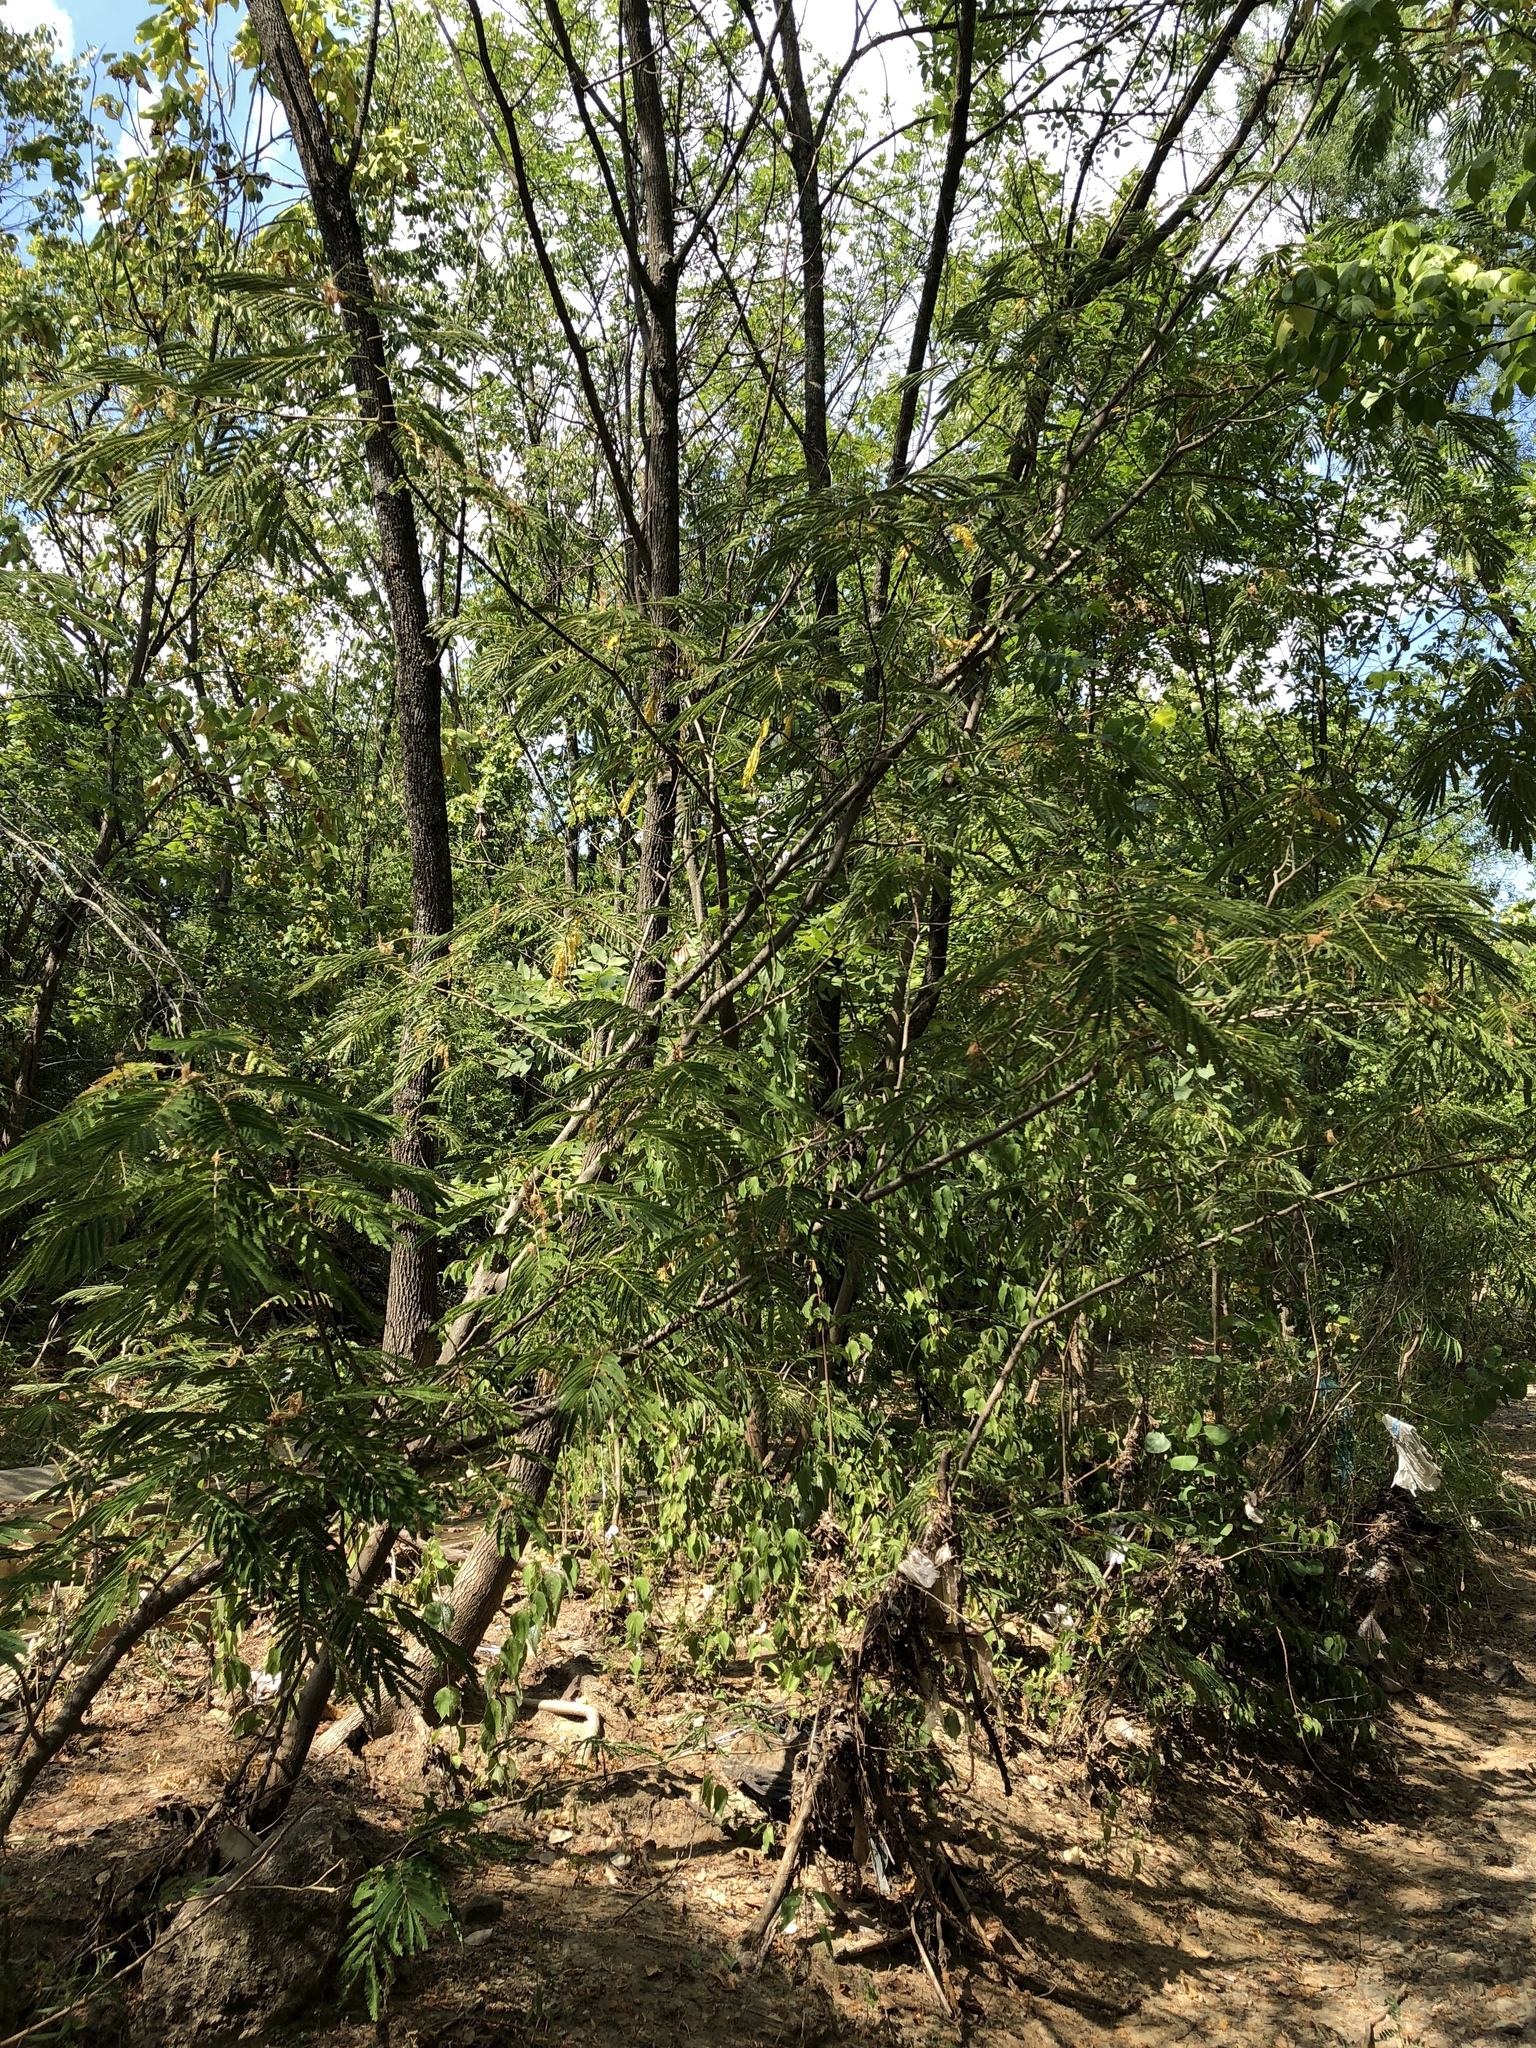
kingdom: Plantae
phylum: Tracheophyta
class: Magnoliopsida
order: Fabales
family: Fabaceae
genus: Albizia
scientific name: Albizia julibrissin
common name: Silktree
